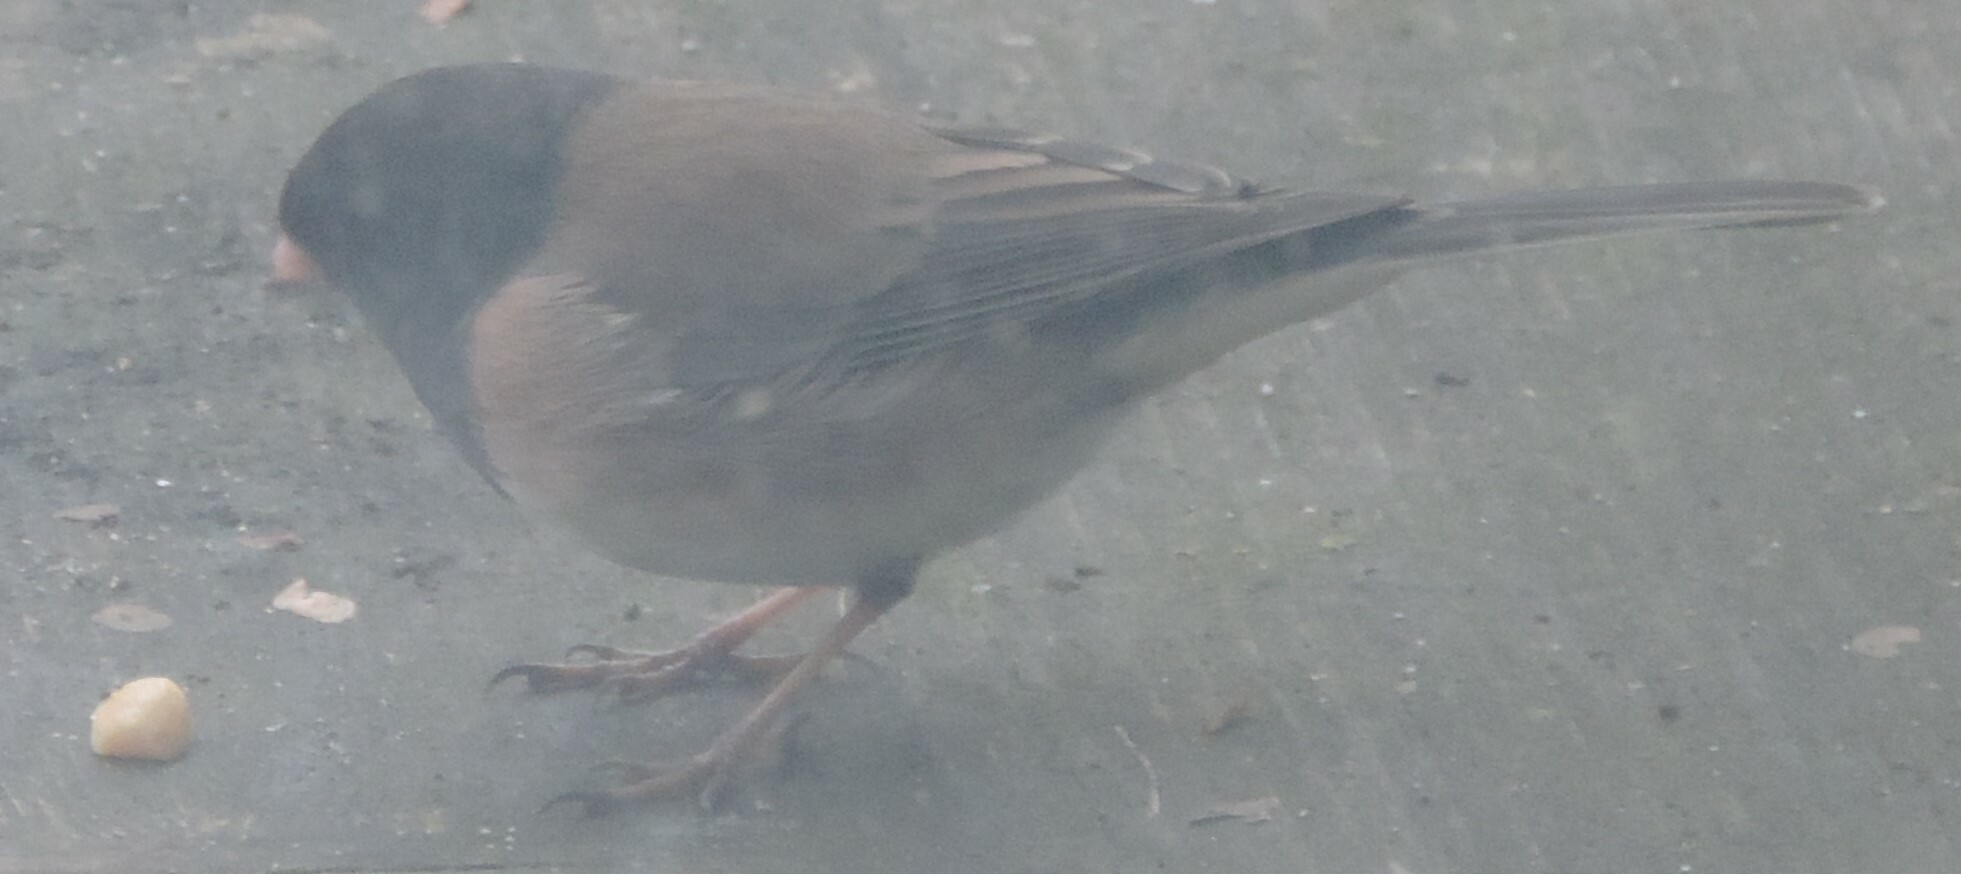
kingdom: Animalia
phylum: Chordata
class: Aves
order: Passeriformes
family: Passerellidae
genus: Junco
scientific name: Junco hyemalis
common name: Dark-eyed junco
